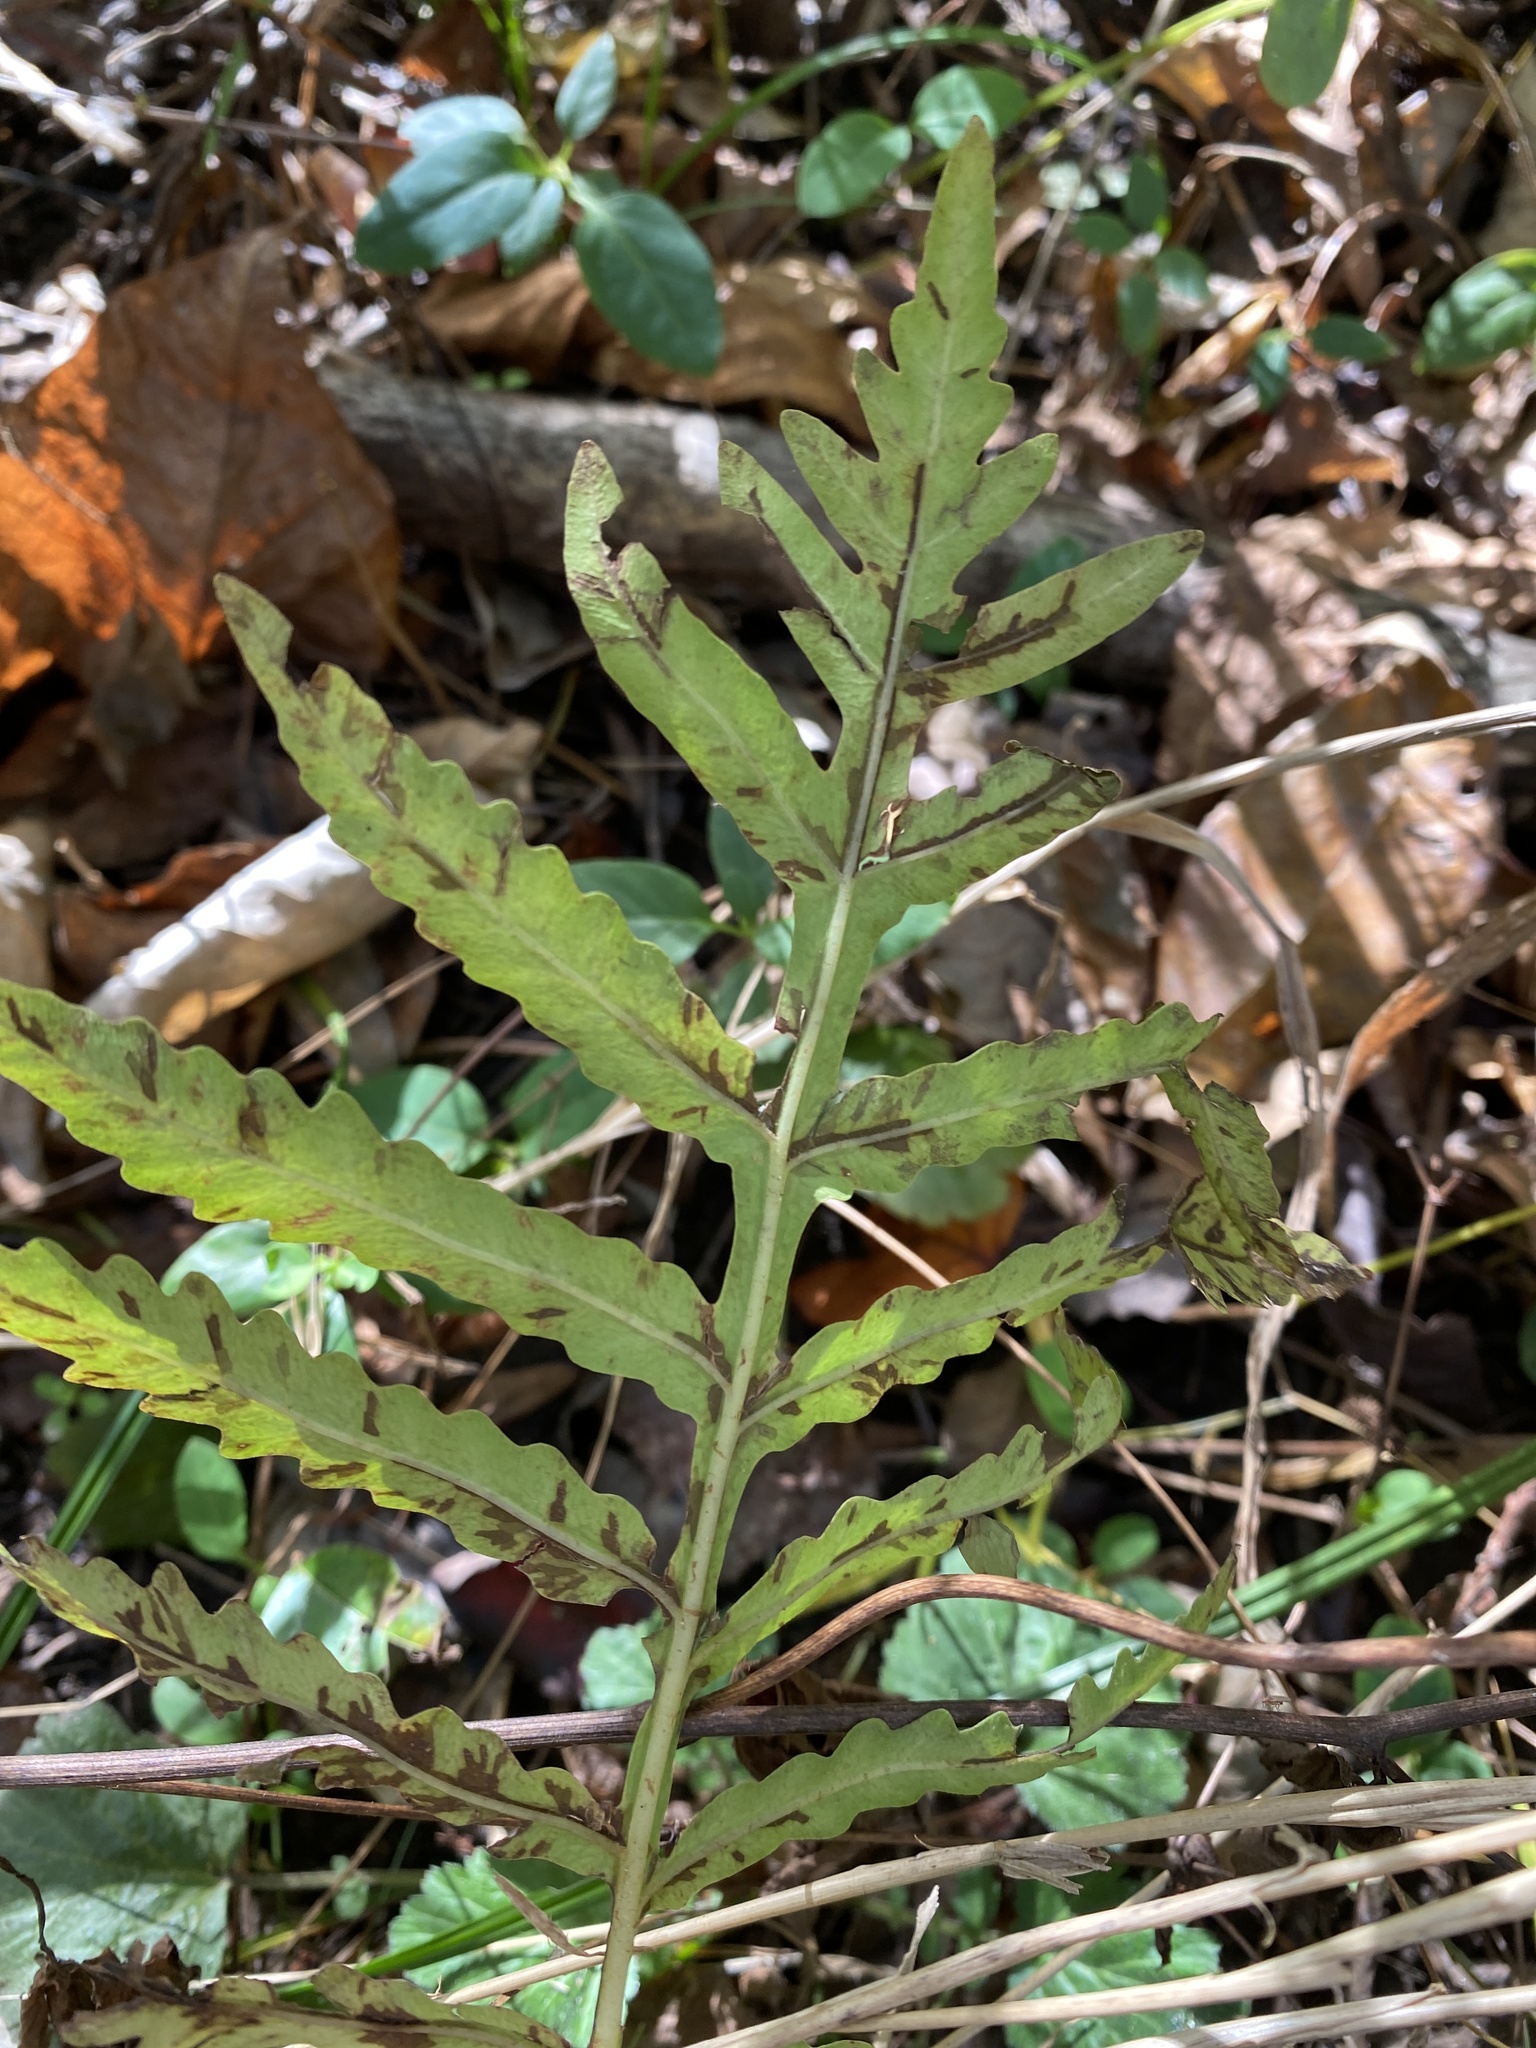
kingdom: Plantae
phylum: Tracheophyta
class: Polypodiopsida
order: Polypodiales
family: Onocleaceae
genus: Onoclea
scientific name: Onoclea sensibilis
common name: Sensitive fern
